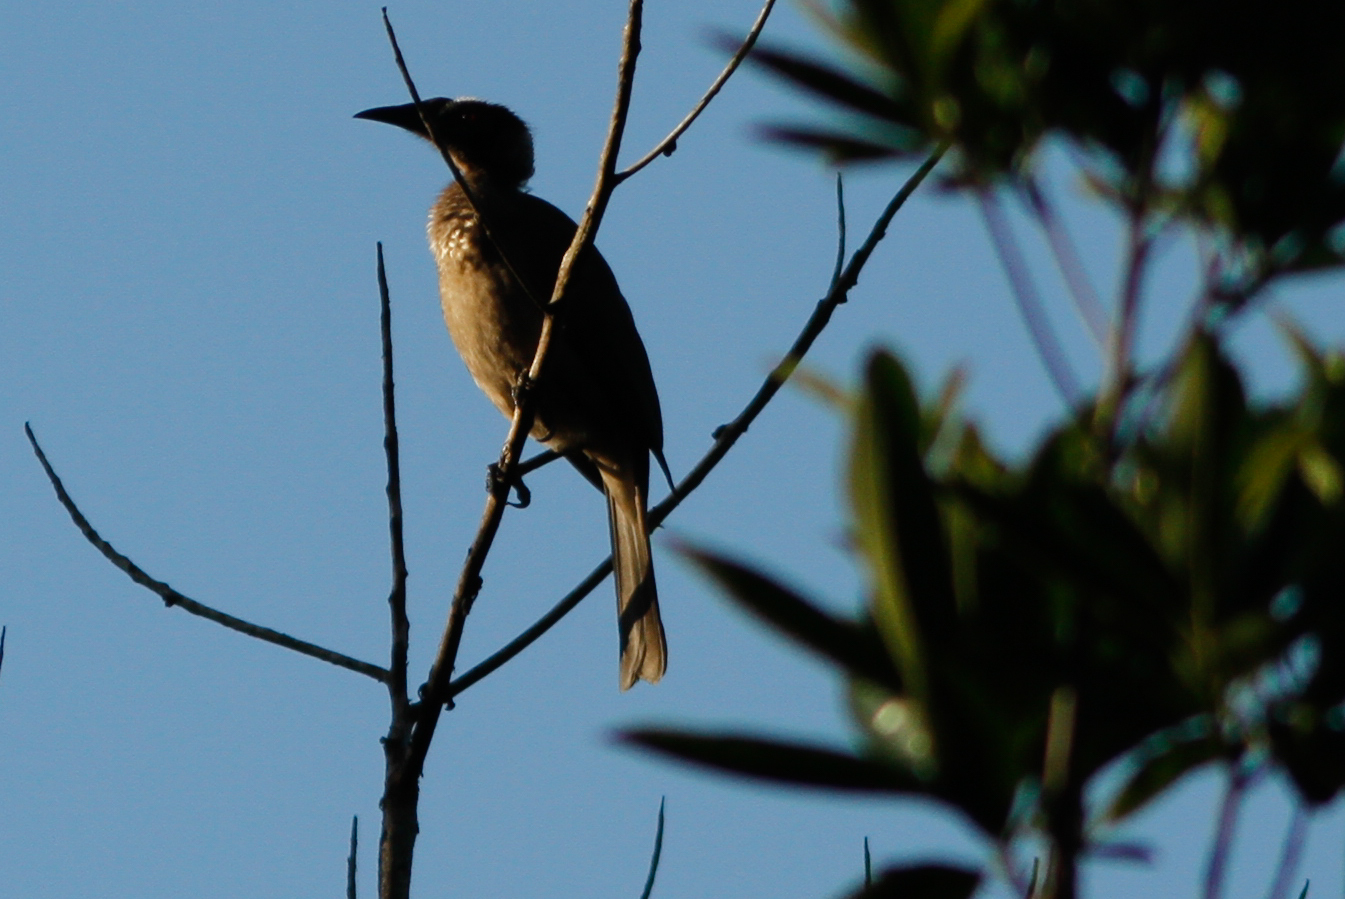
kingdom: Animalia
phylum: Chordata
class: Aves
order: Passeriformes
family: Meliphagidae
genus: Philemon
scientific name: Philemon buceroides
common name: Helmeted friarbird
